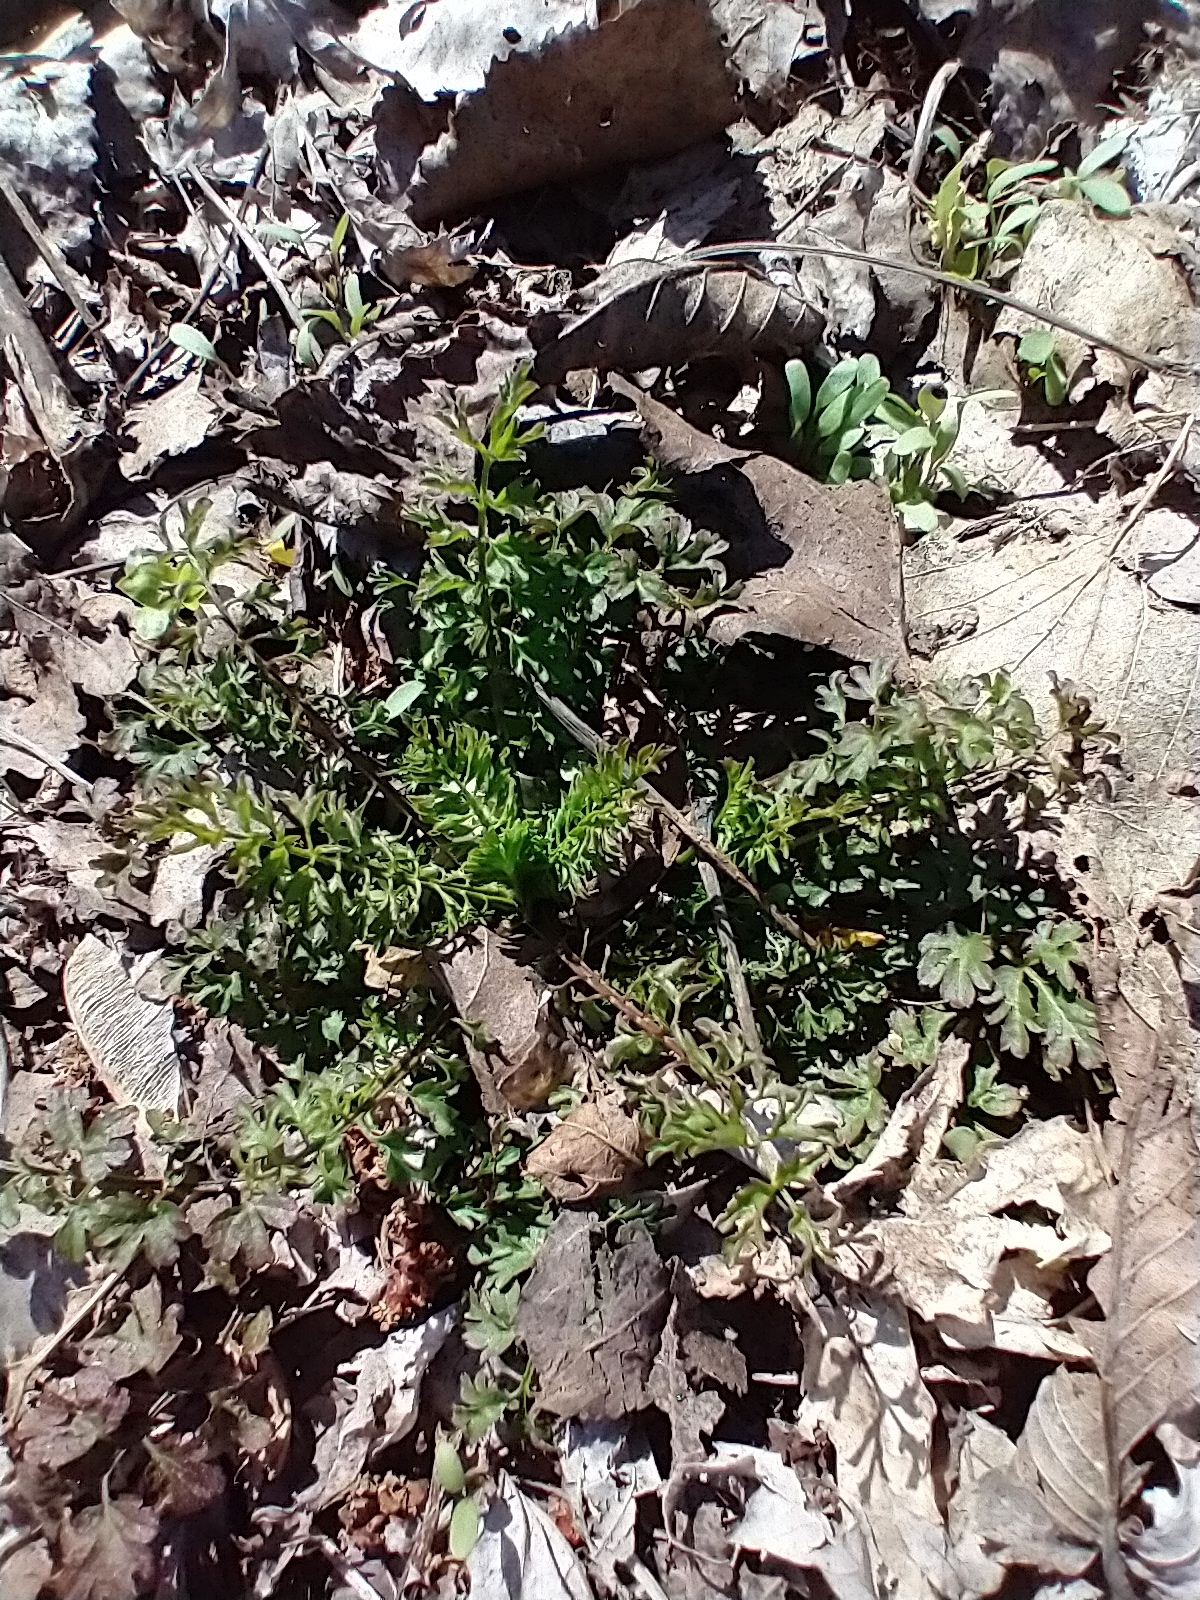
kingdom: Plantae
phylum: Tracheophyta
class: Magnoliopsida
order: Brassicales
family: Brassicaceae
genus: Cardamine
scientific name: Cardamine impatiens
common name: Narrow-leaved bitter-cress
